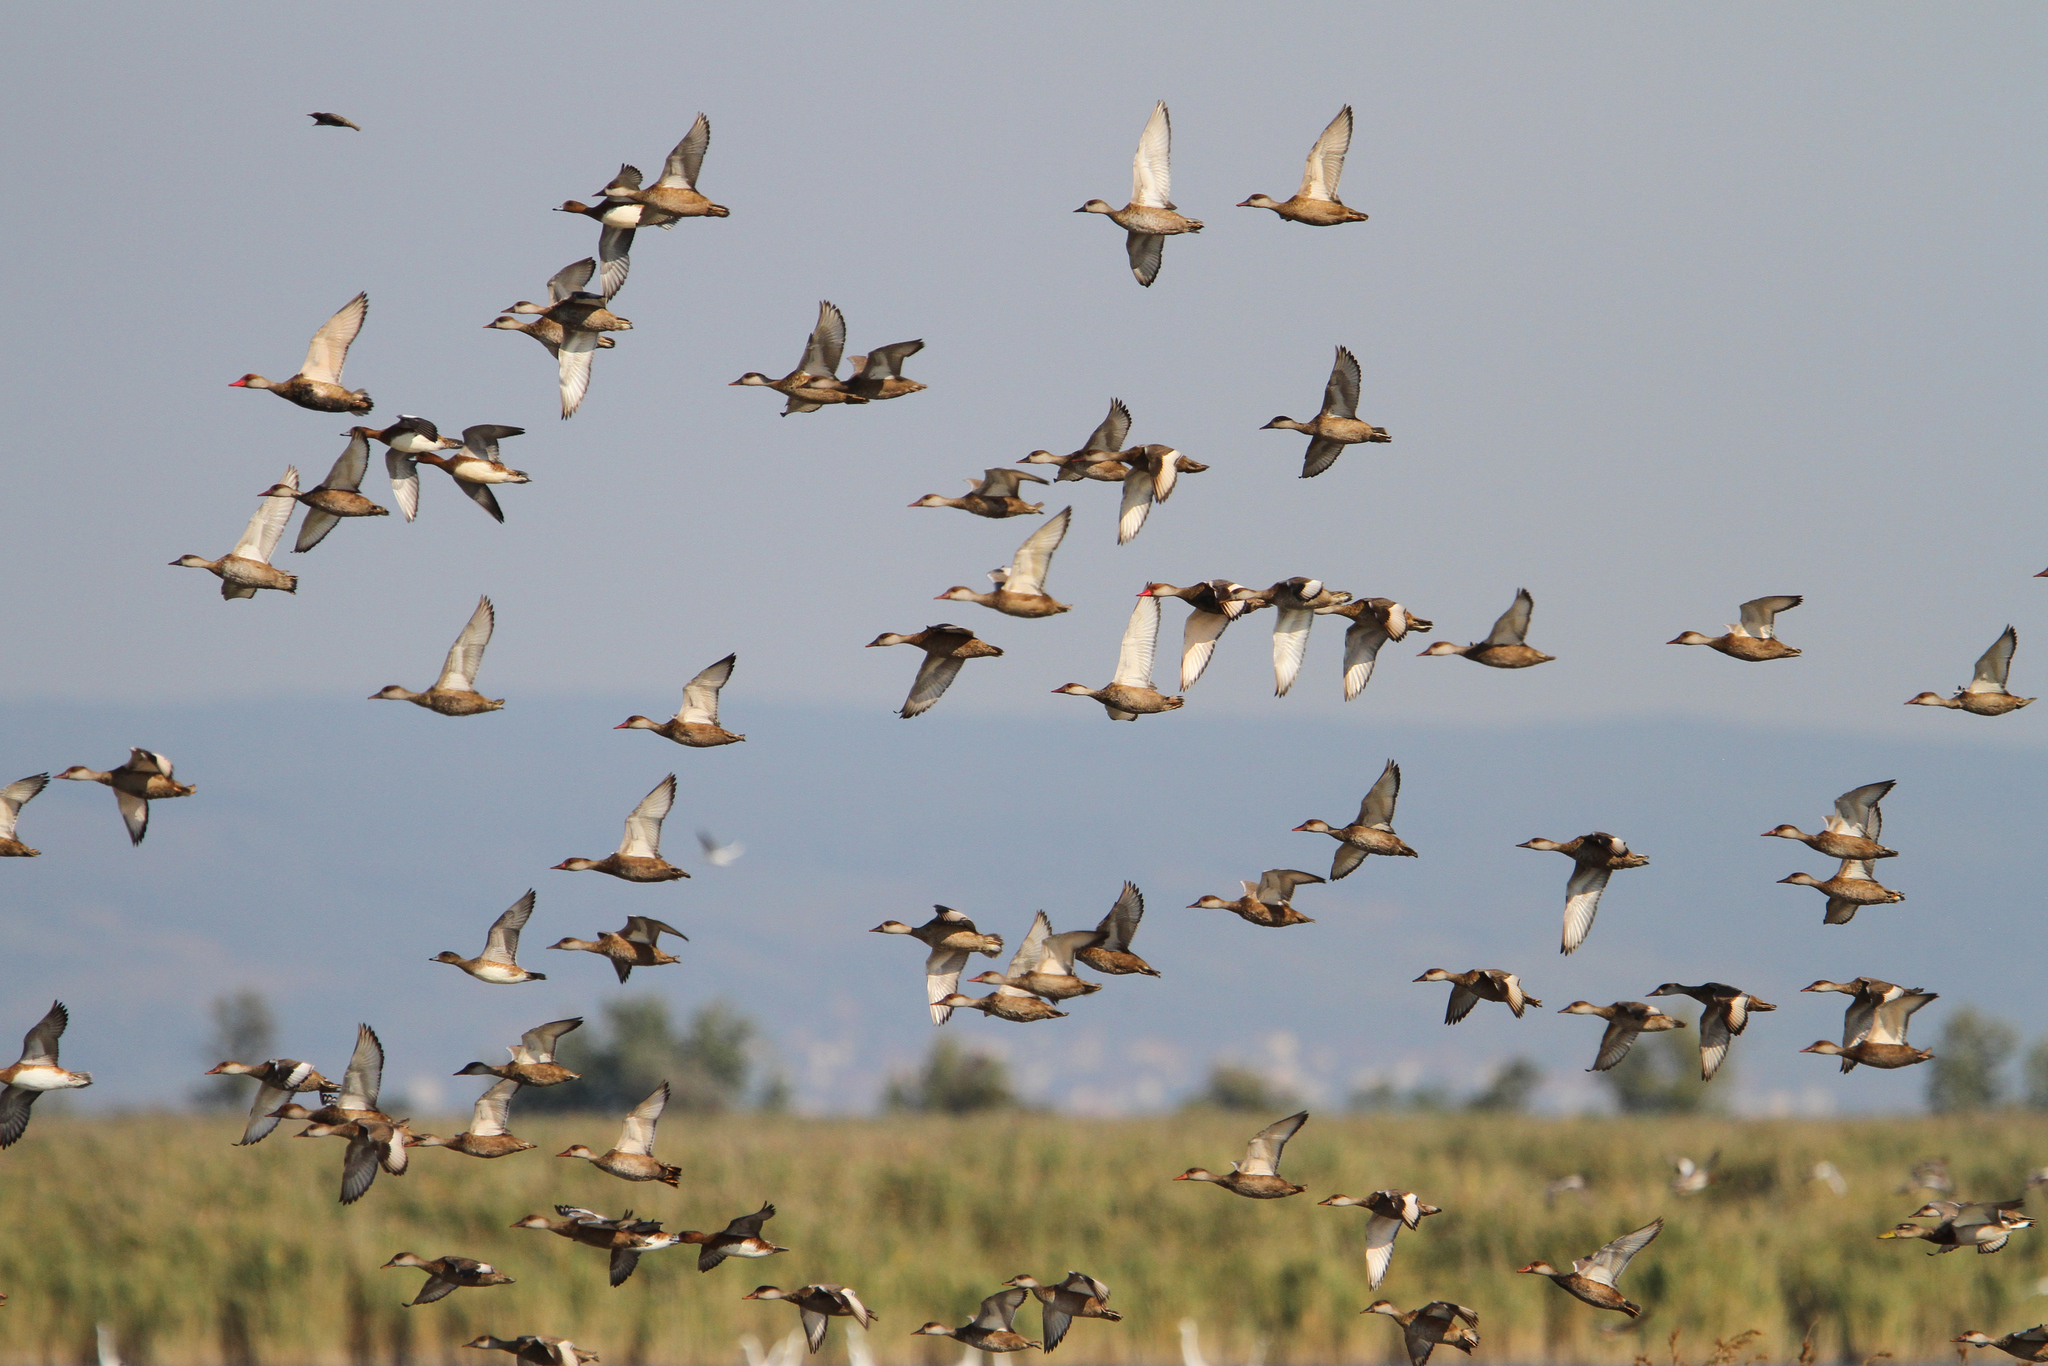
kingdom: Animalia
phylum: Chordata
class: Aves
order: Anseriformes
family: Anatidae
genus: Netta
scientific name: Netta rufina
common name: Red-crested pochard
